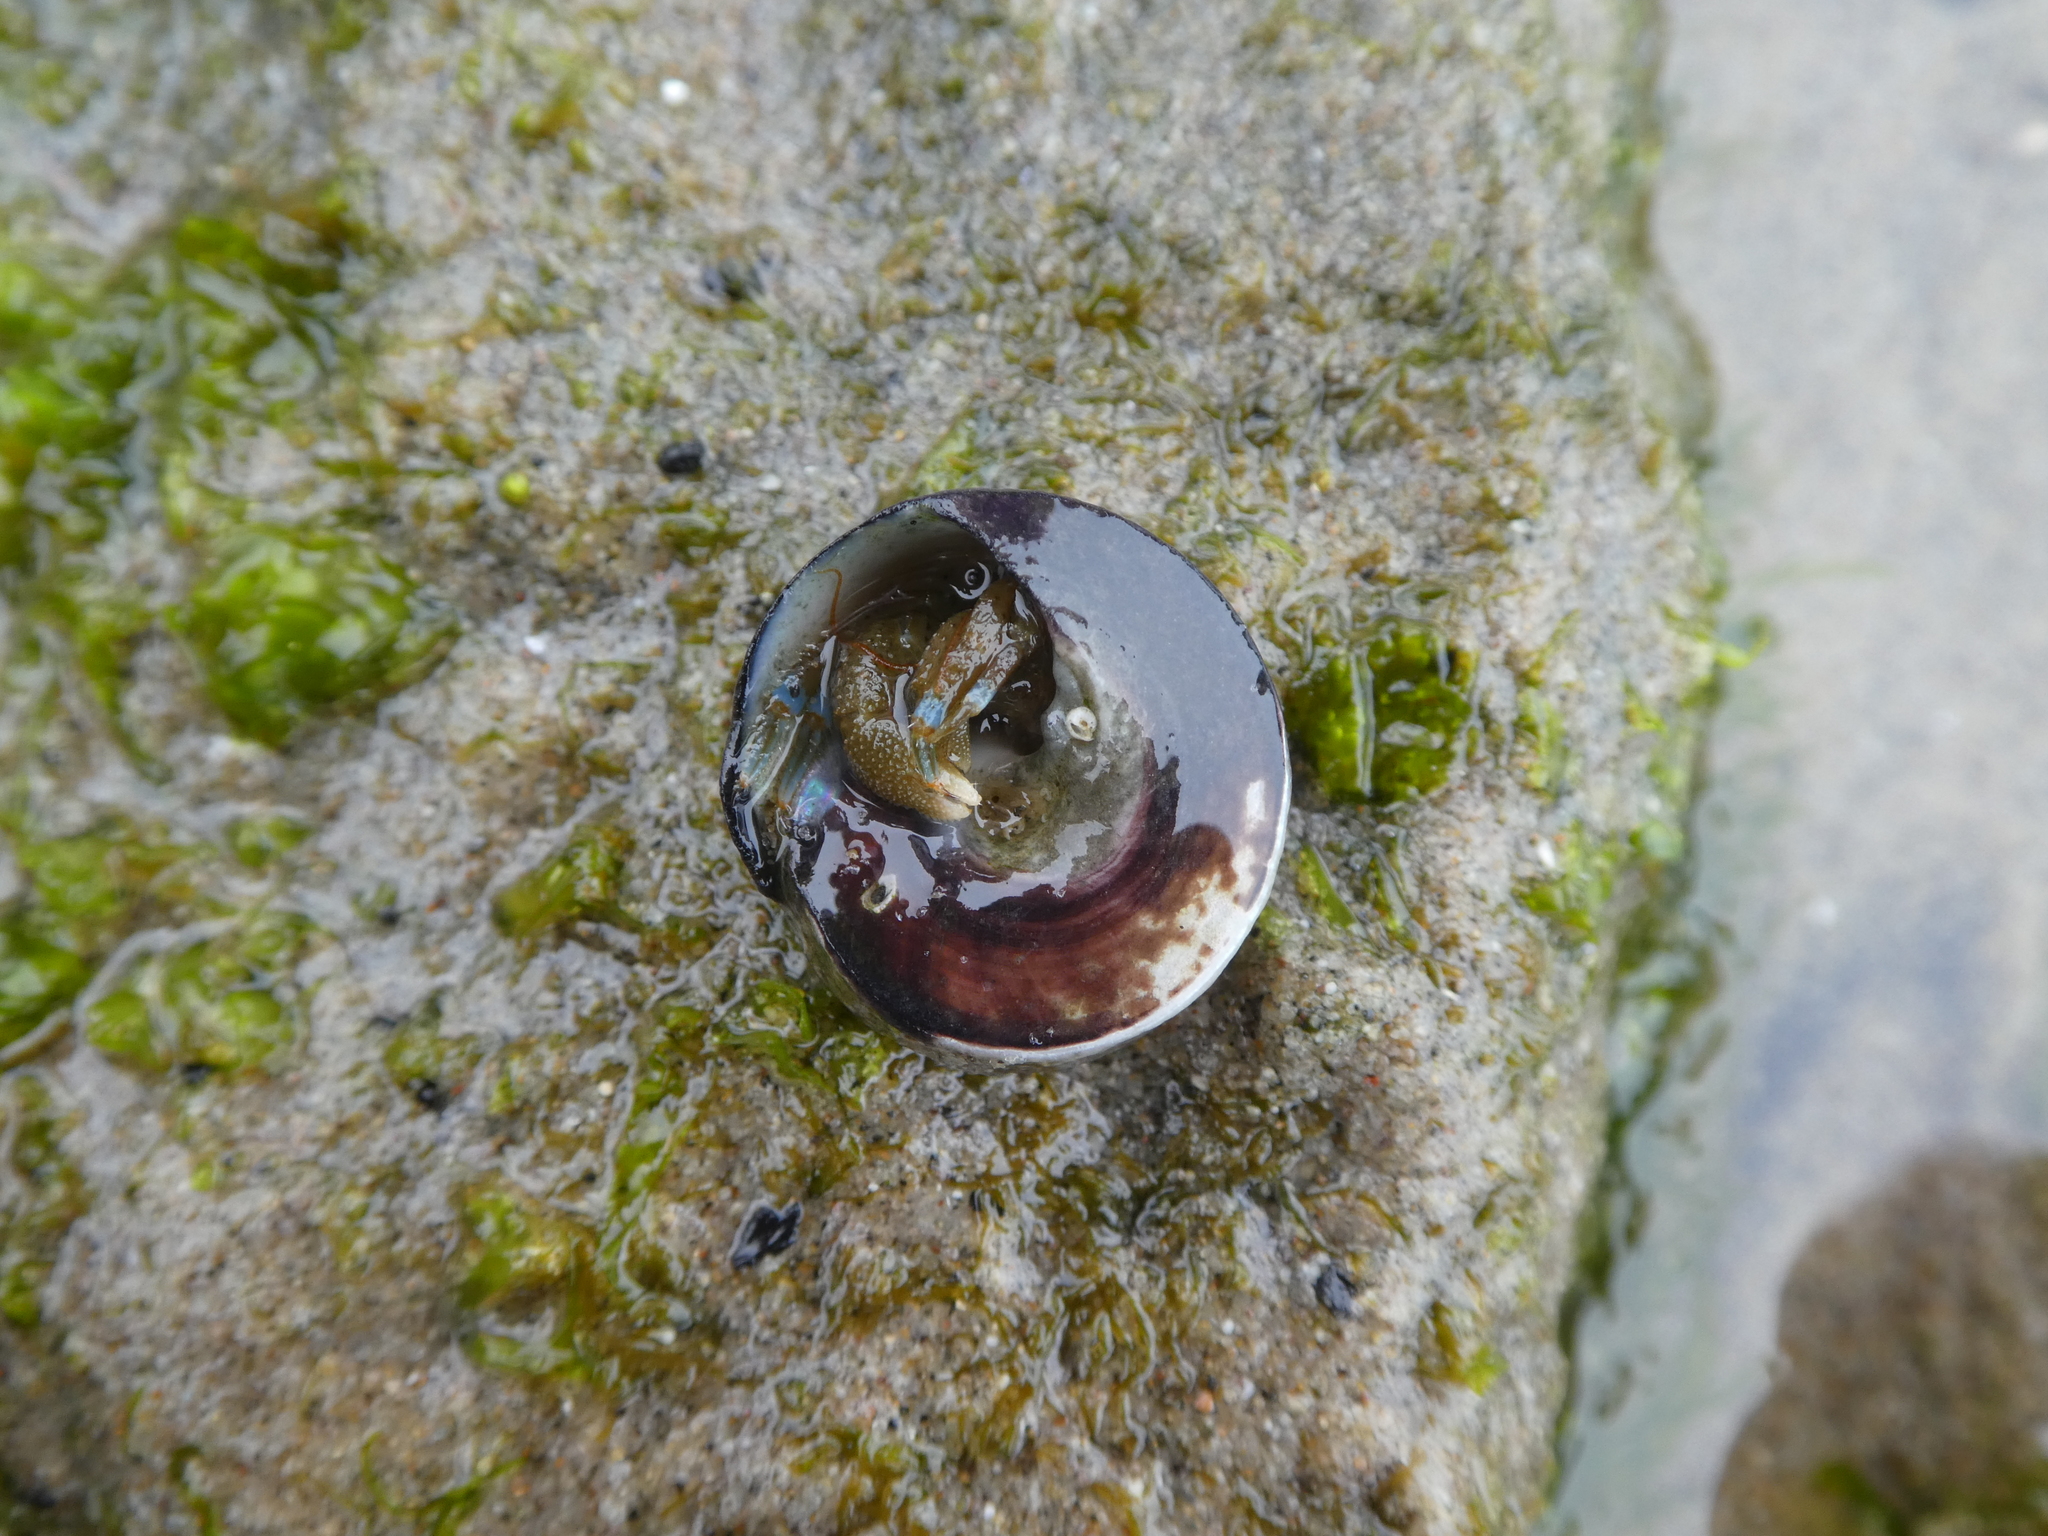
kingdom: Animalia
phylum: Arthropoda
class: Malacostraca
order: Decapoda
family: Paguridae
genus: Pagurus
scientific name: Pagurus samuelis
